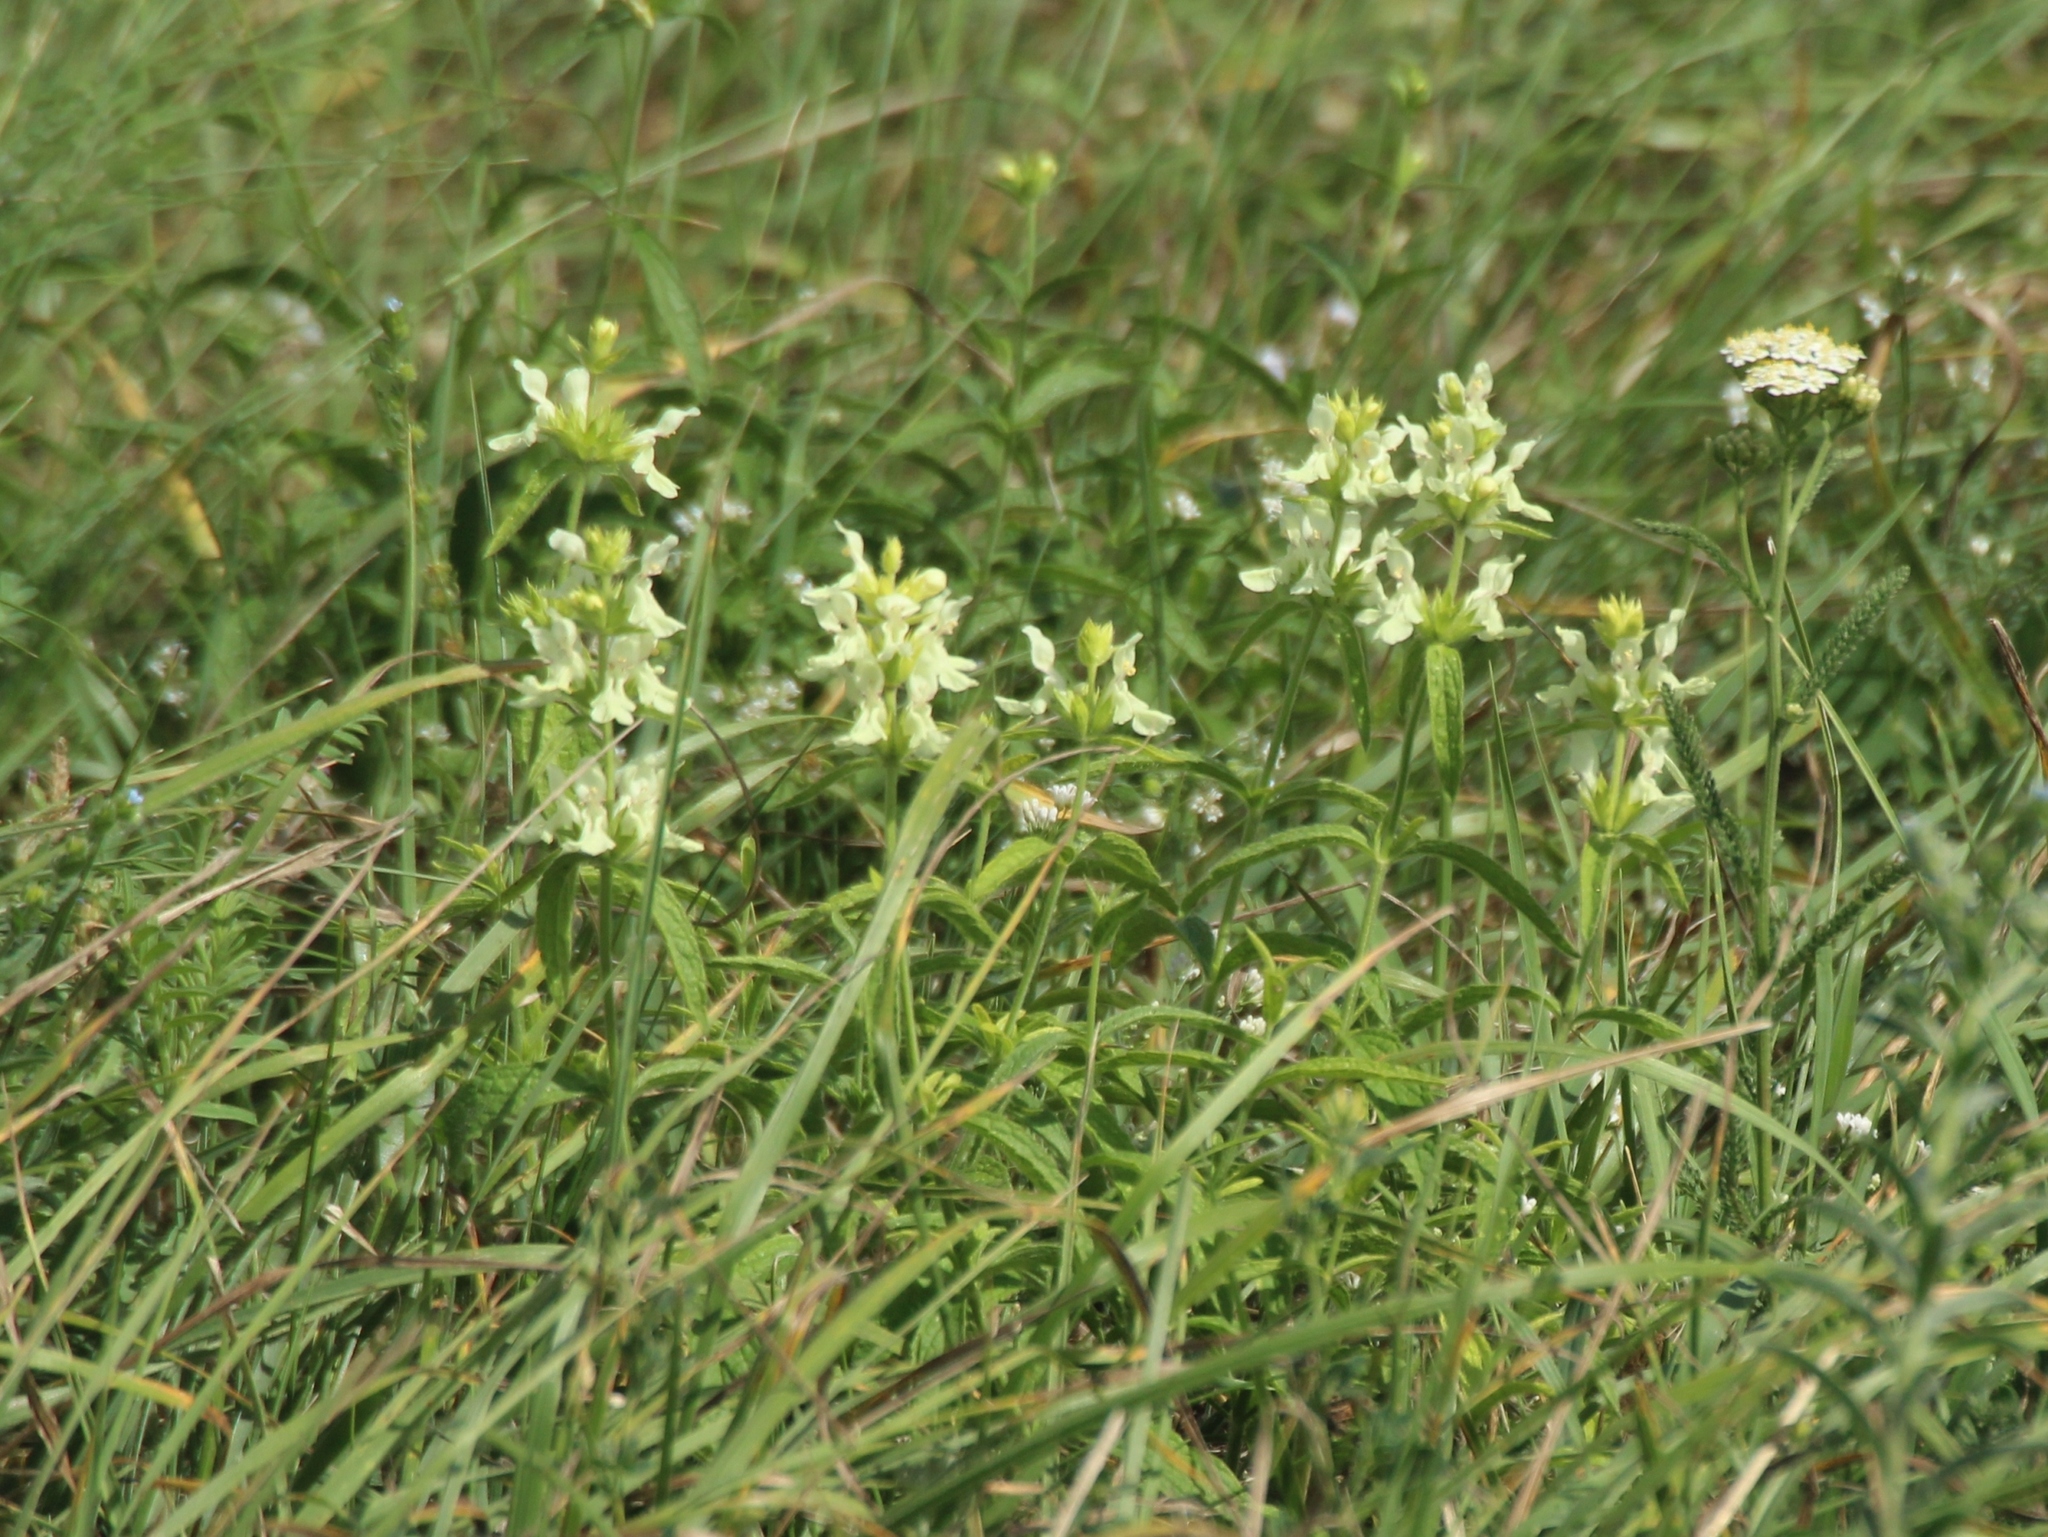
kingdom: Plantae
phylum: Tracheophyta
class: Magnoliopsida
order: Lamiales
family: Lamiaceae
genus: Stachys
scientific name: Stachys recta
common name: Perennial yellow-woundwort
